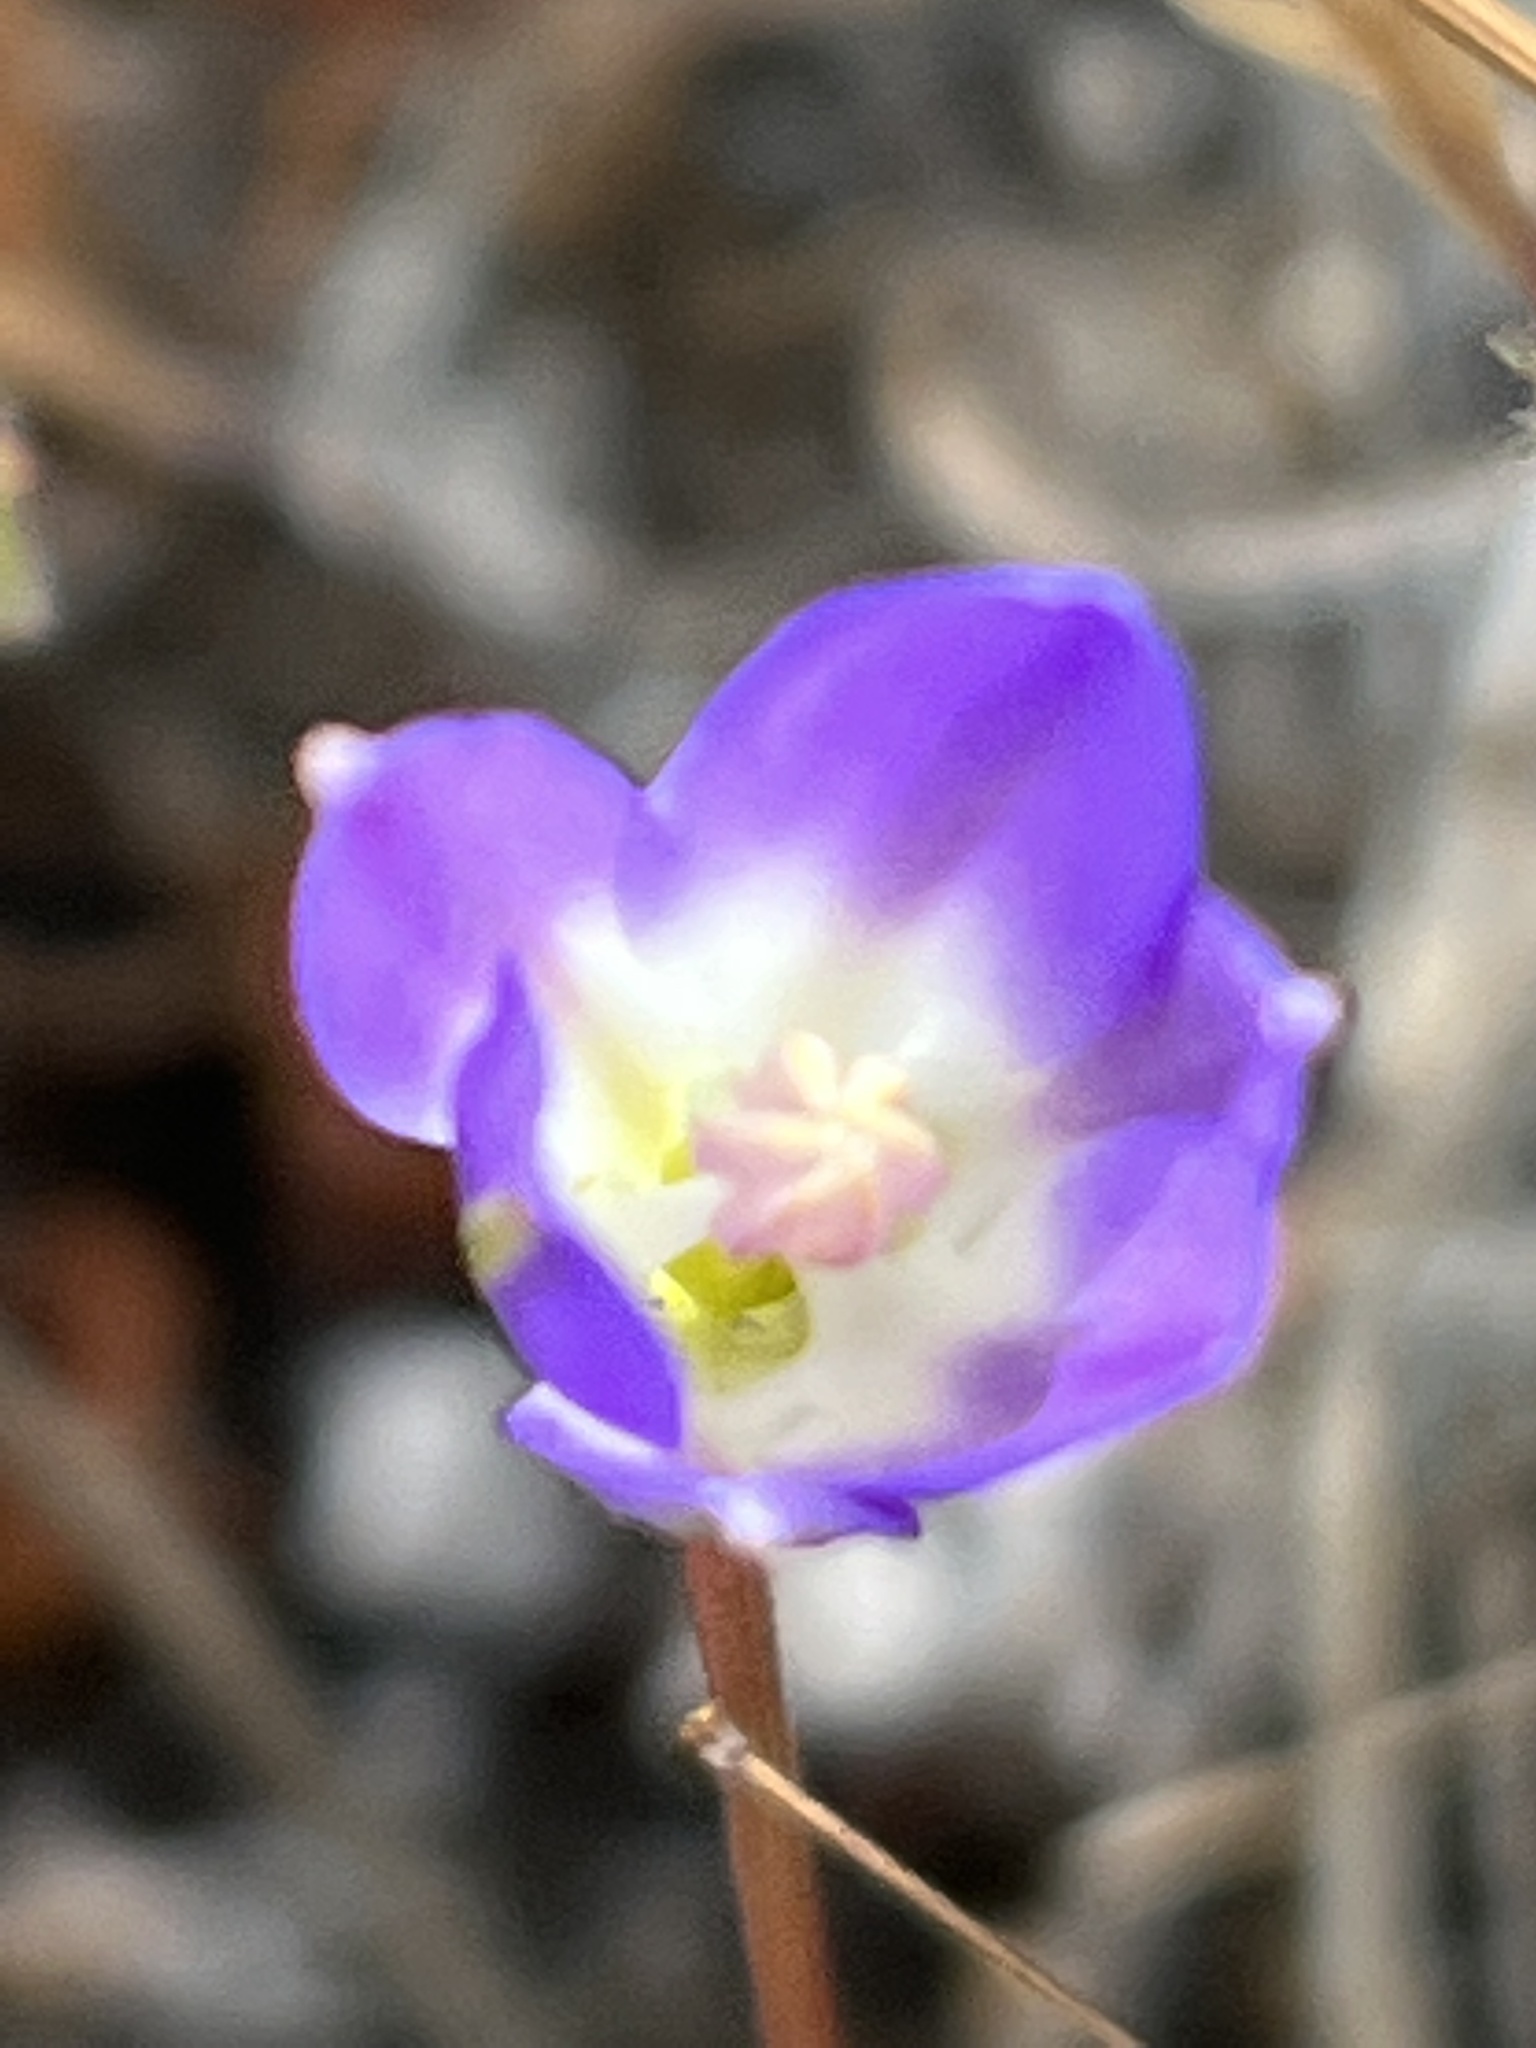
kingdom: Plantae
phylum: Tracheophyta
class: Liliopsida
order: Asparagales
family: Asparagaceae
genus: Brodiaea
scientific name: Brodiaea orcuttii
